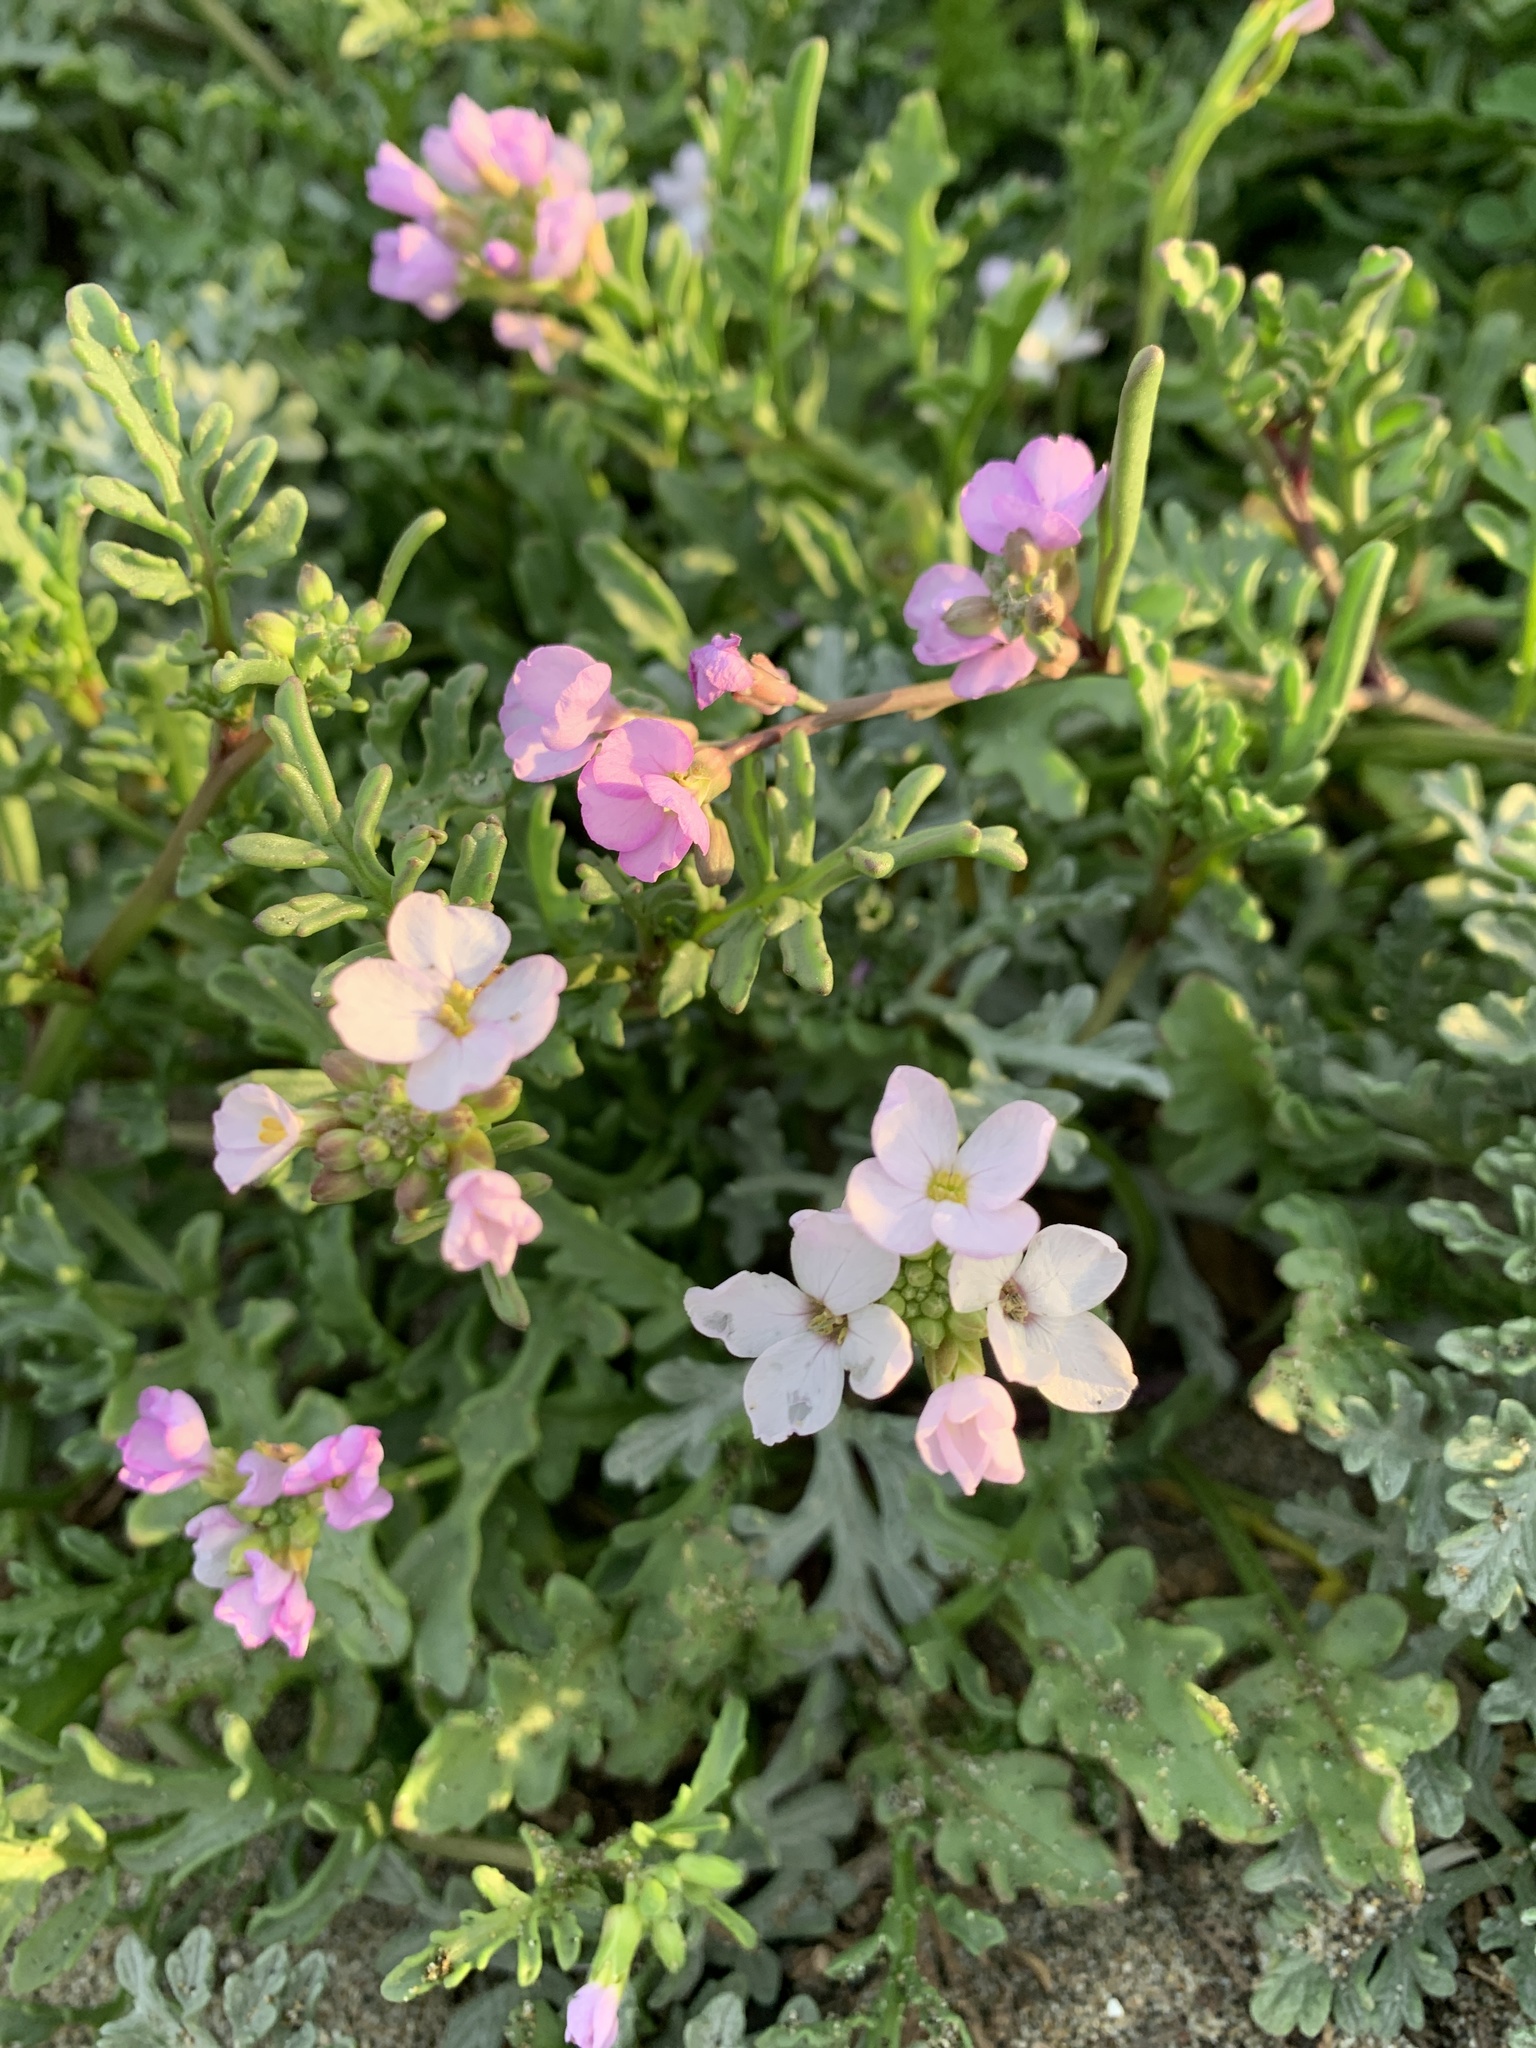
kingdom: Plantae
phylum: Tracheophyta
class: Magnoliopsida
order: Brassicales
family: Brassicaceae
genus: Cakile
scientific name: Cakile maritima
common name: Sea rocket
